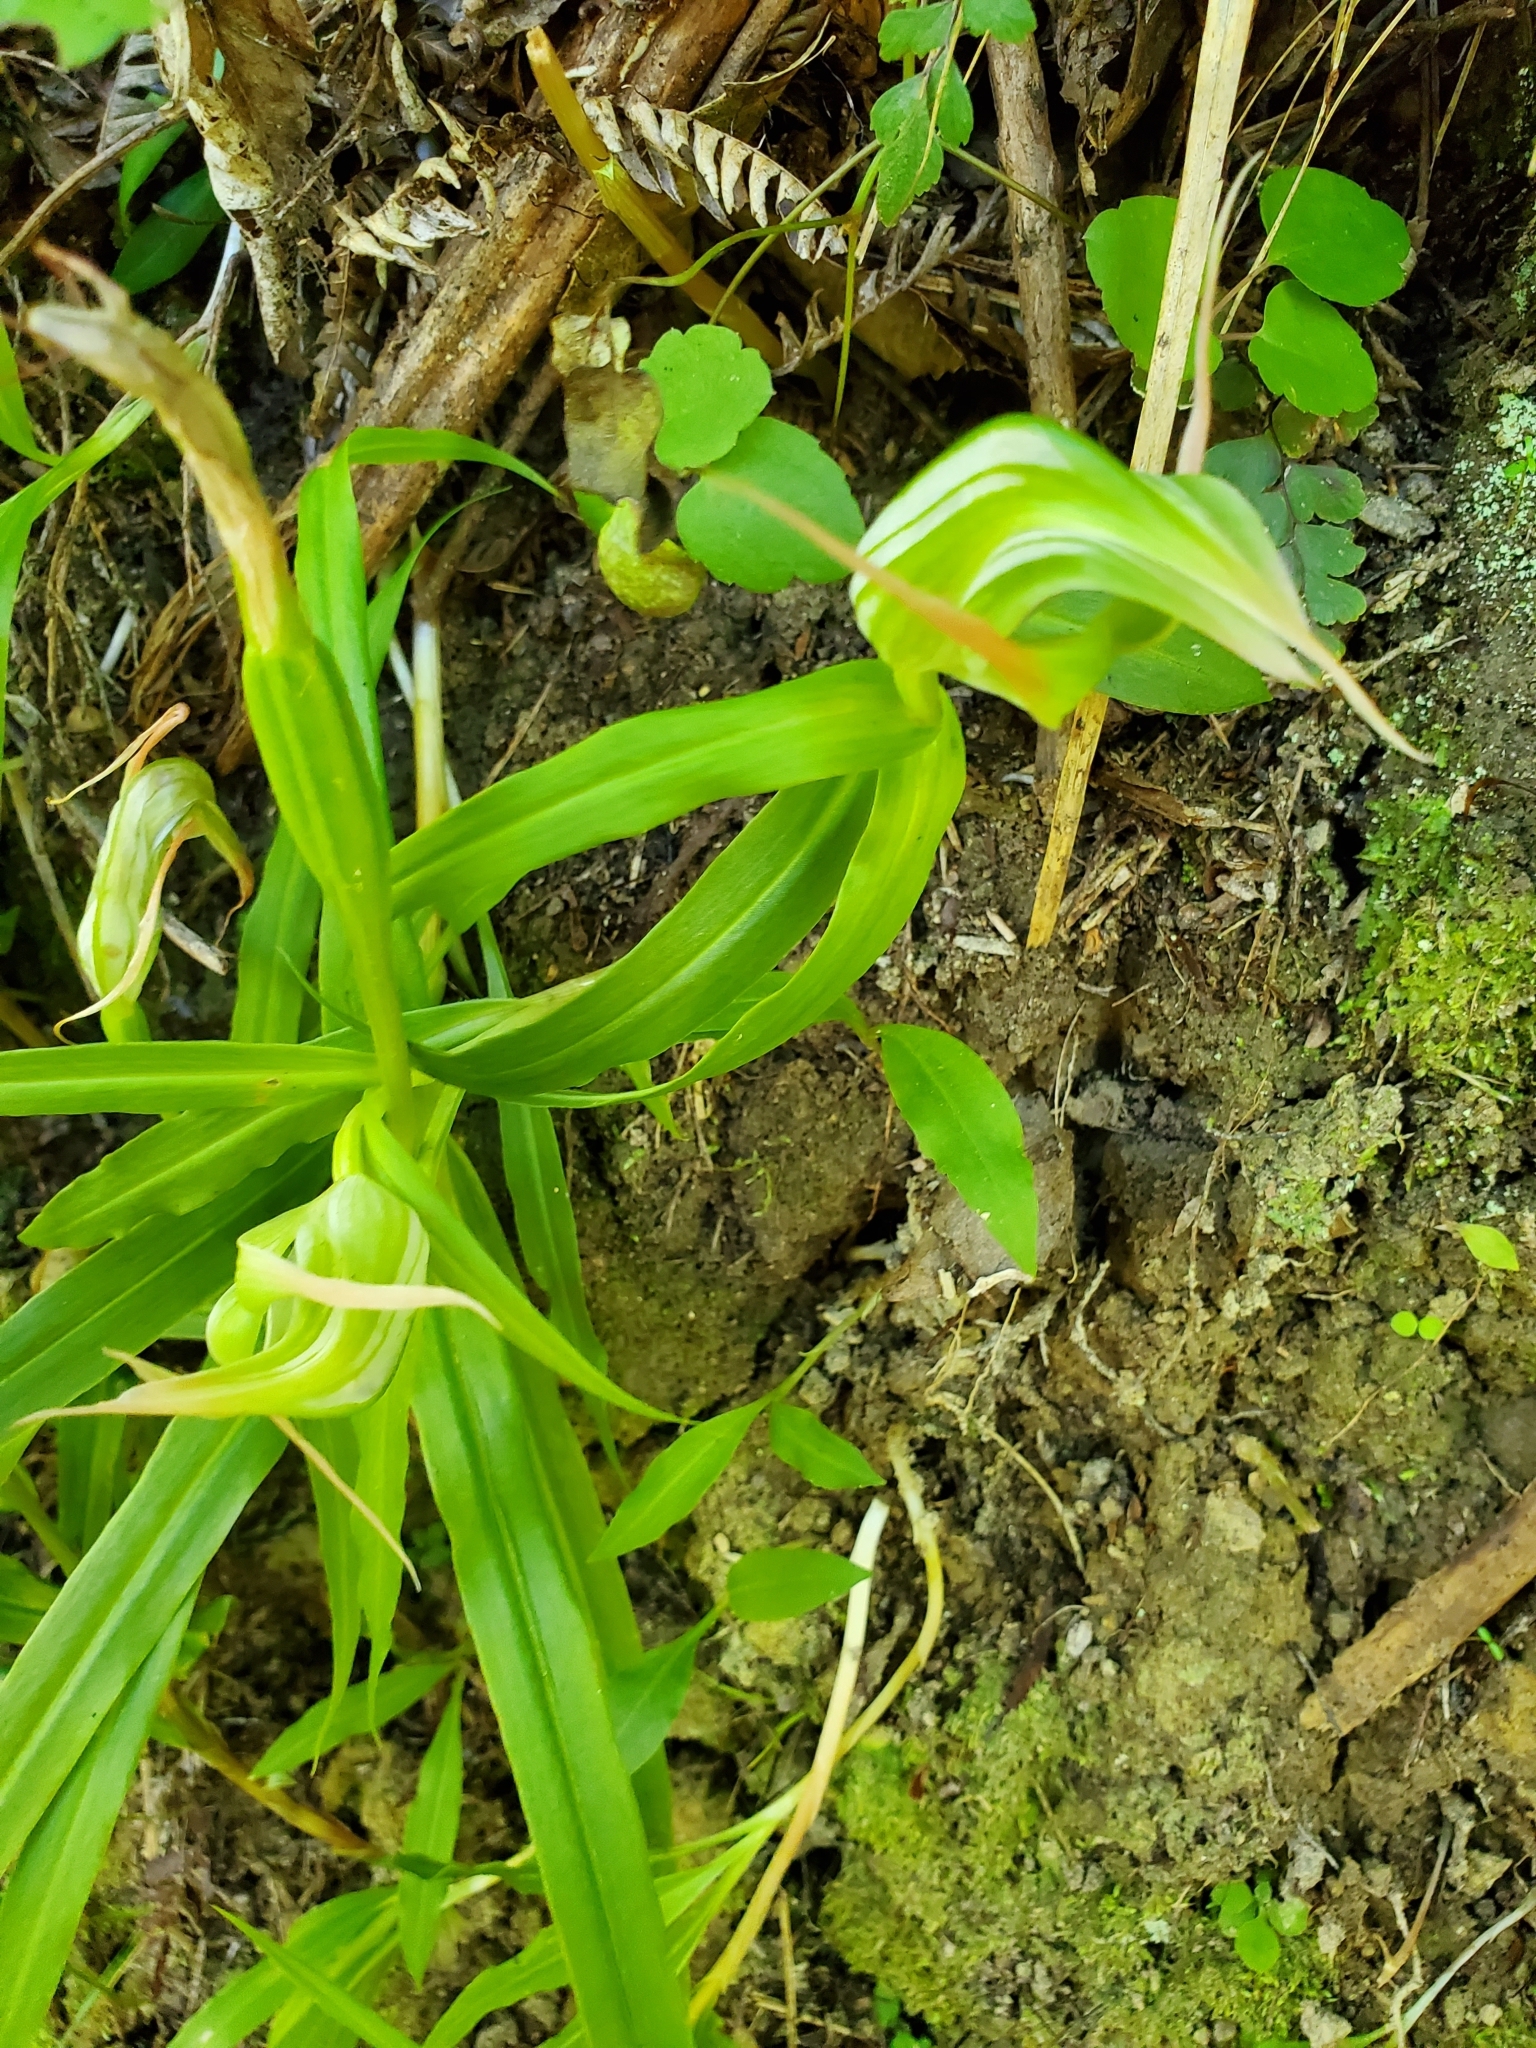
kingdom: Plantae
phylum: Tracheophyta
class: Liliopsida
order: Asparagales
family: Orchidaceae
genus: Pterostylis
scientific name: Pterostylis banksii
